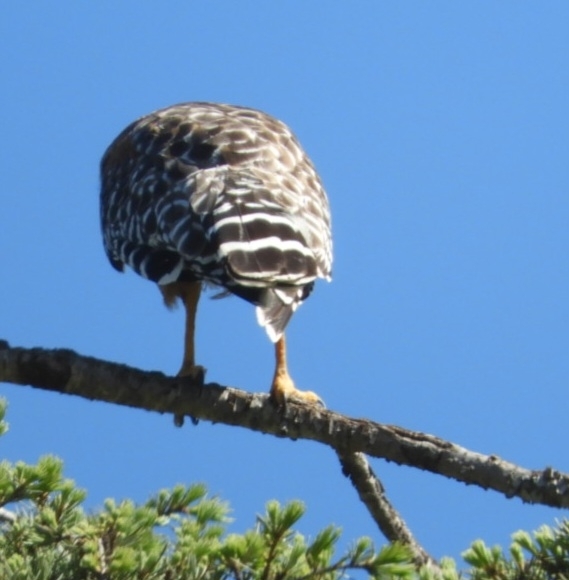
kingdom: Animalia
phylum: Chordata
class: Aves
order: Accipitriformes
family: Accipitridae
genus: Buteo
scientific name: Buteo lineatus
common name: Red-shouldered hawk
